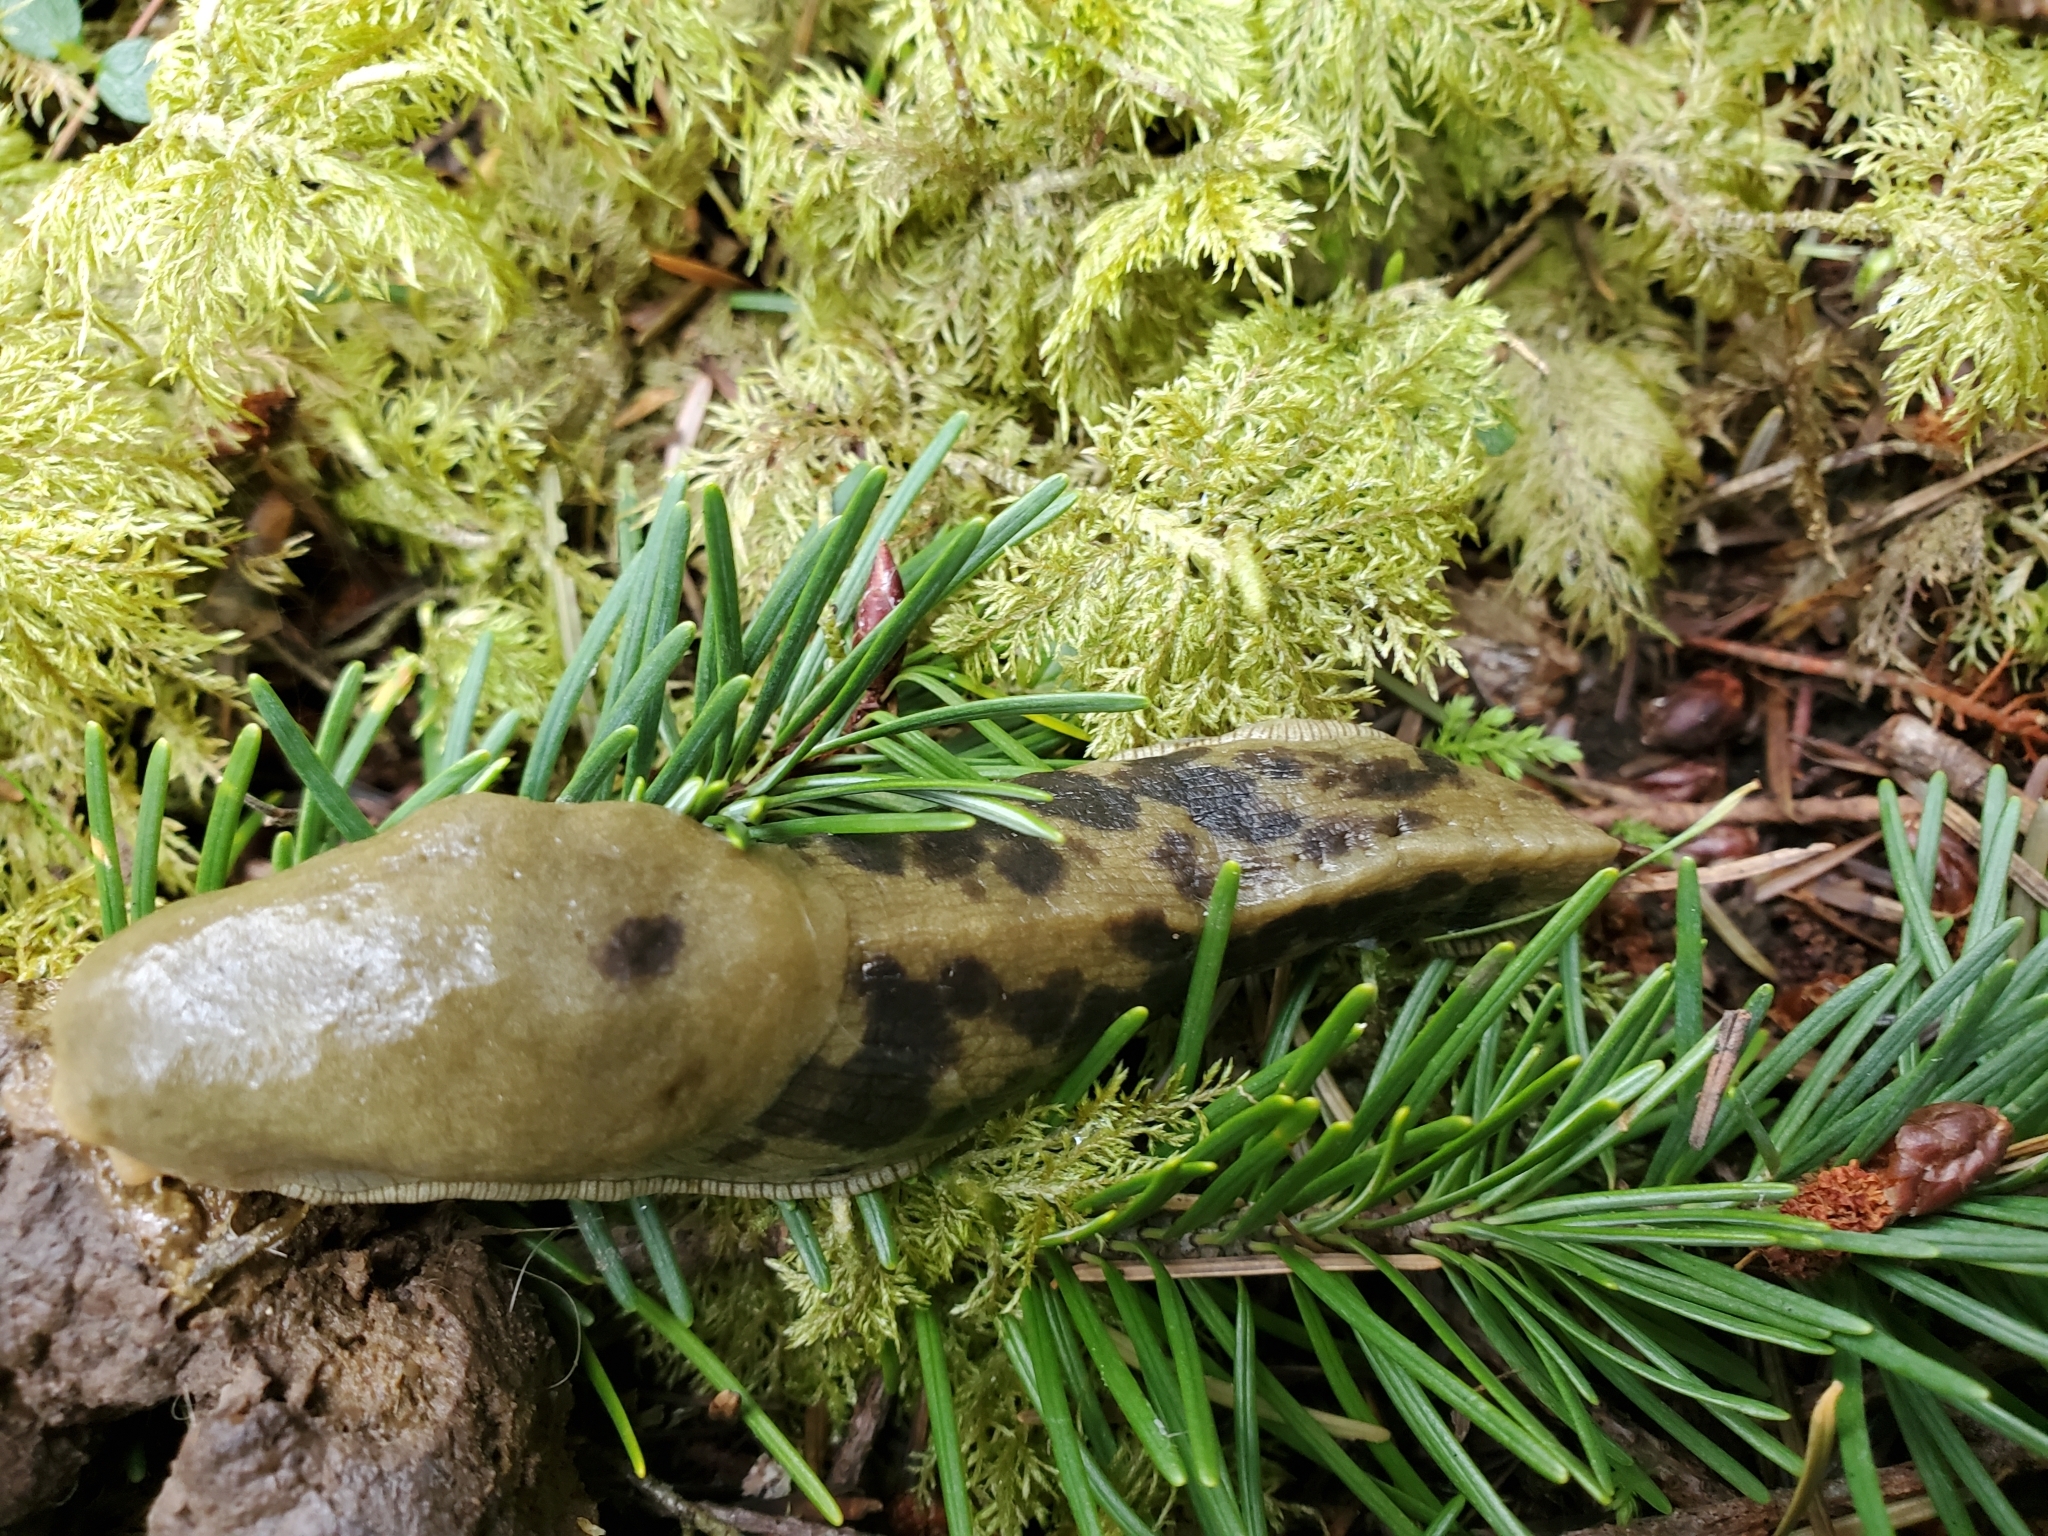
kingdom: Animalia
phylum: Mollusca
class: Gastropoda
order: Stylommatophora
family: Ariolimacidae
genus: Ariolimax
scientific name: Ariolimax columbianus
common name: Pacific banana slug
